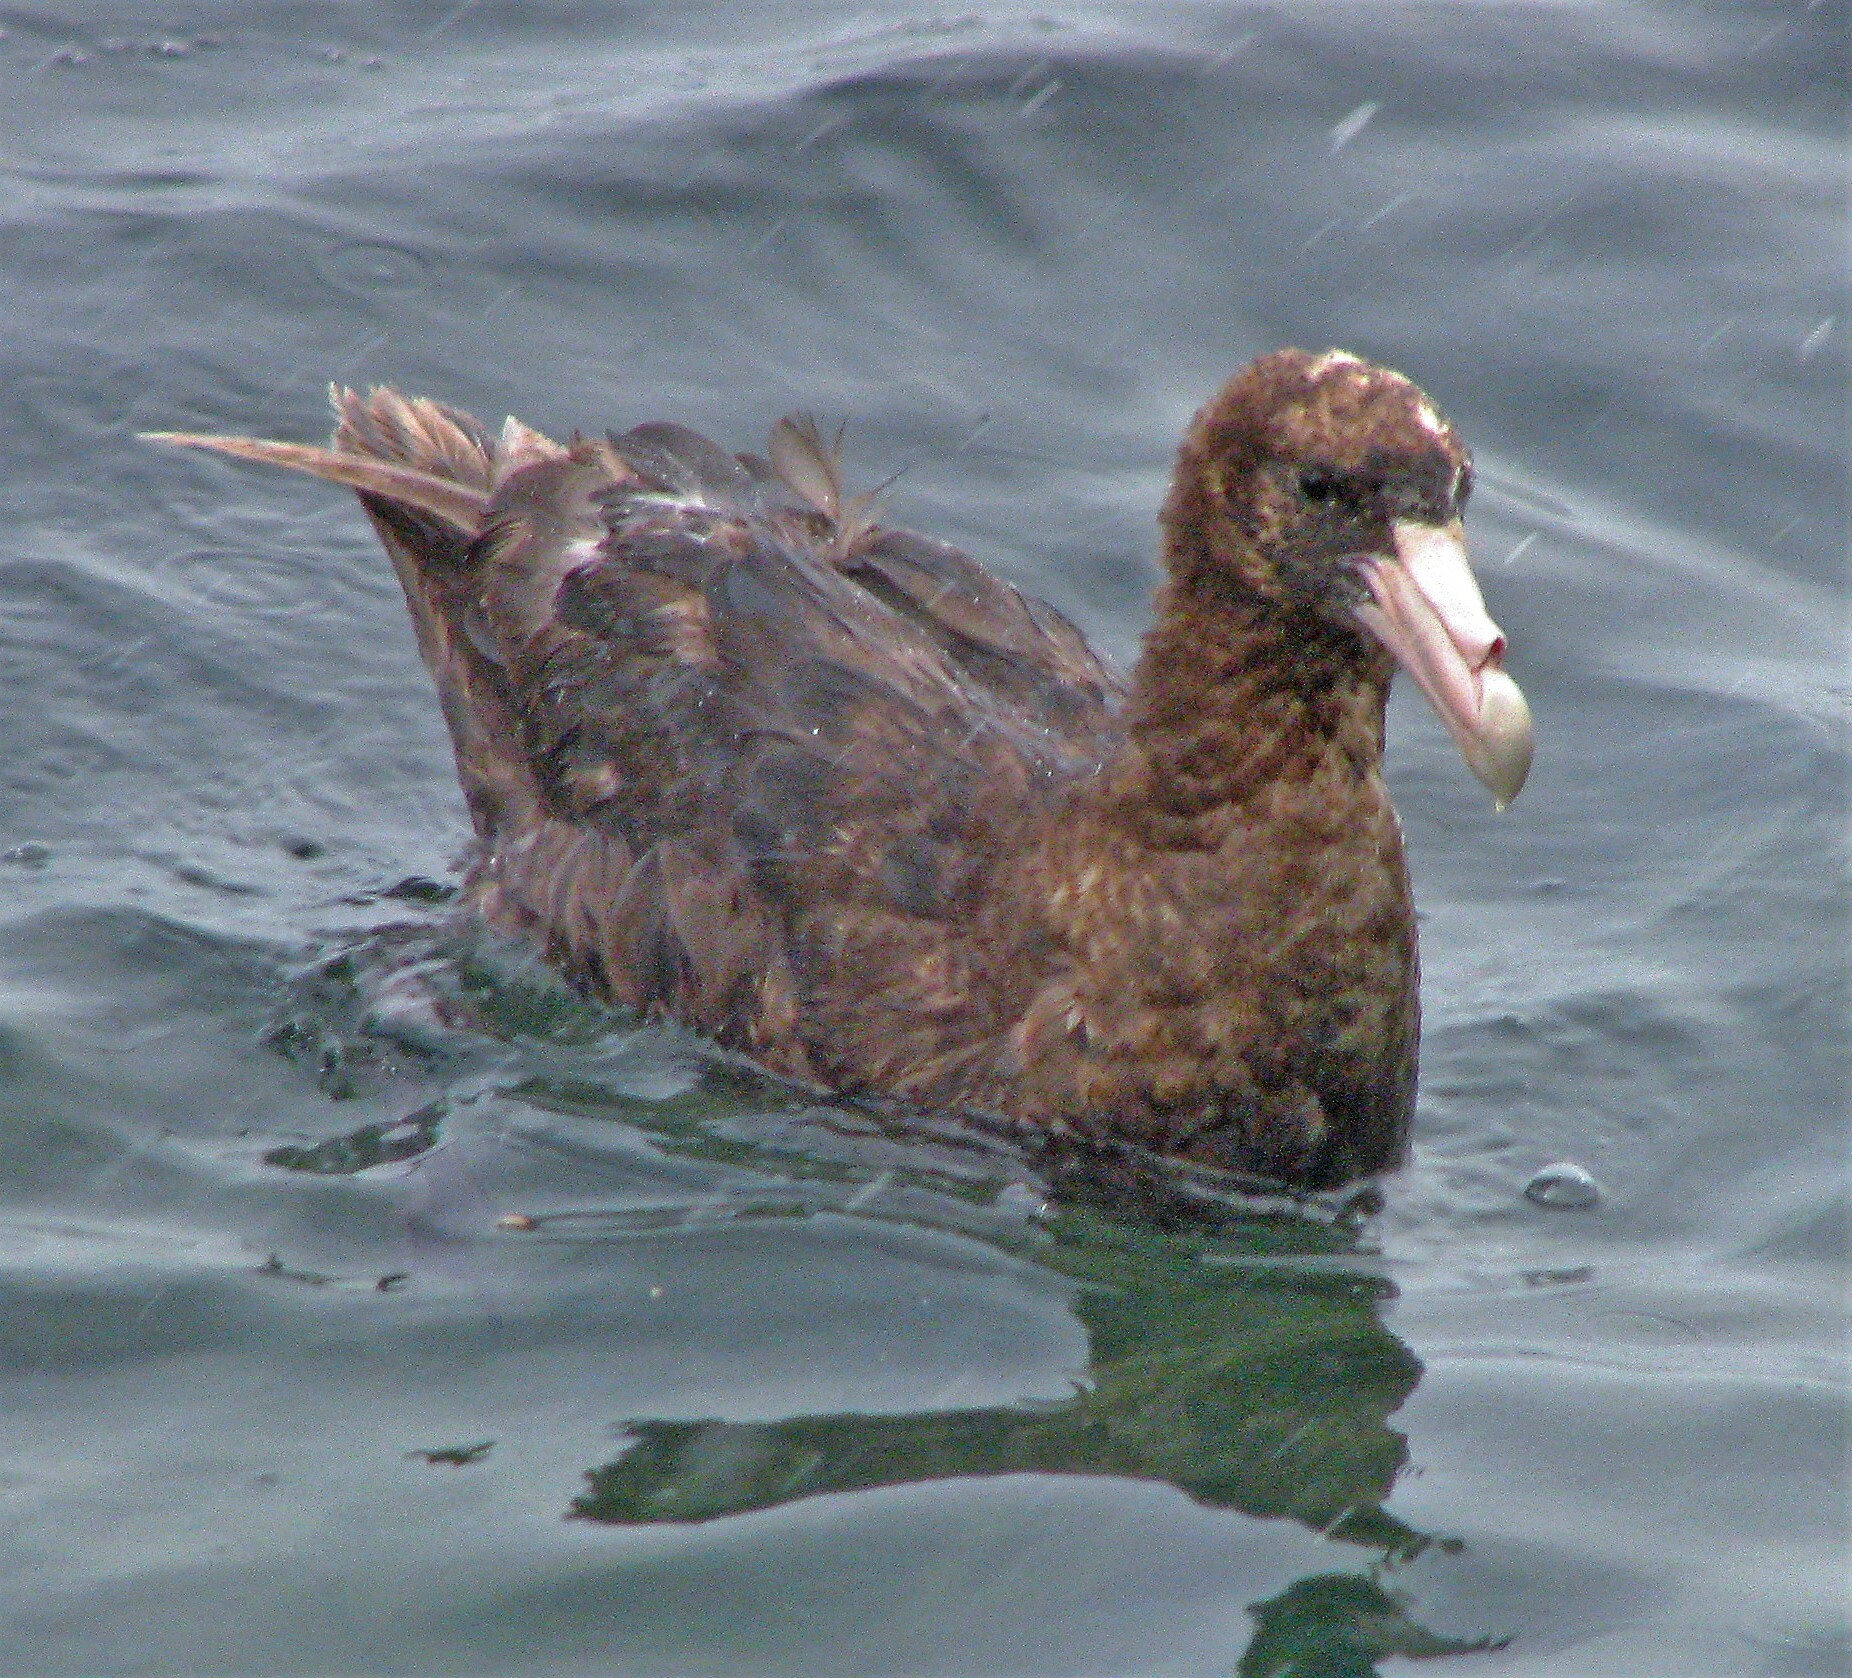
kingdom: Animalia
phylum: Chordata
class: Aves
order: Procellariiformes
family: Procellariidae
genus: Macronectes
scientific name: Macronectes giganteus
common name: Southern giant petrel
